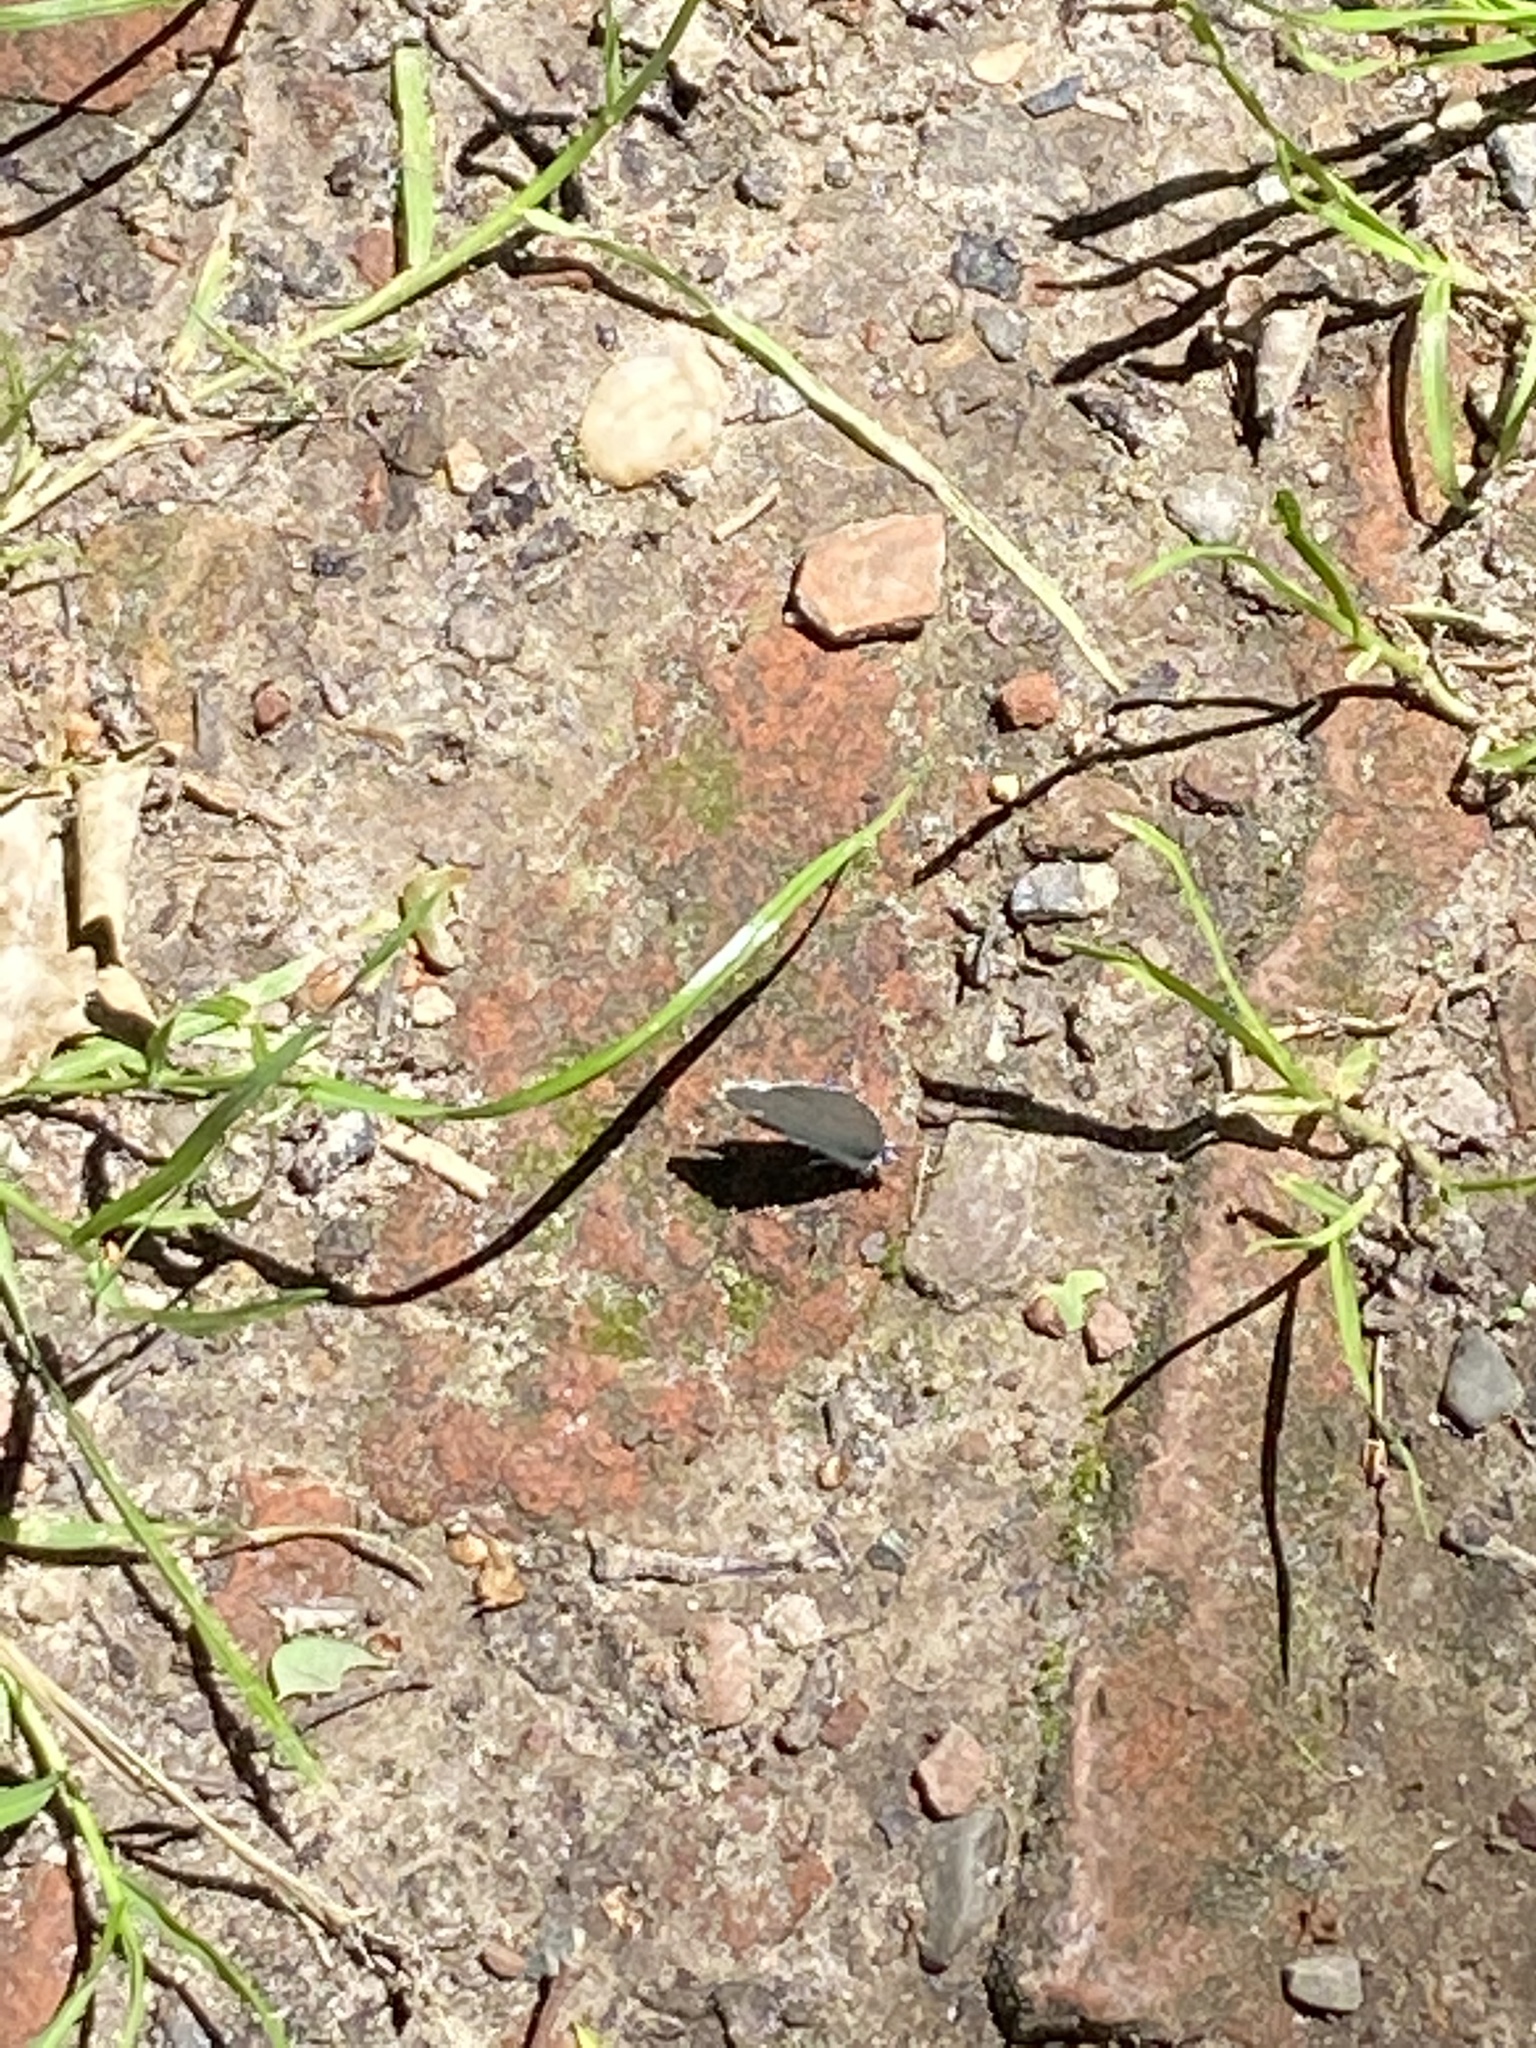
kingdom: Animalia
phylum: Arthropoda
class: Insecta
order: Lepidoptera
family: Lycaenidae
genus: Celastrina
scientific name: Celastrina argiolus
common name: Holly blue
